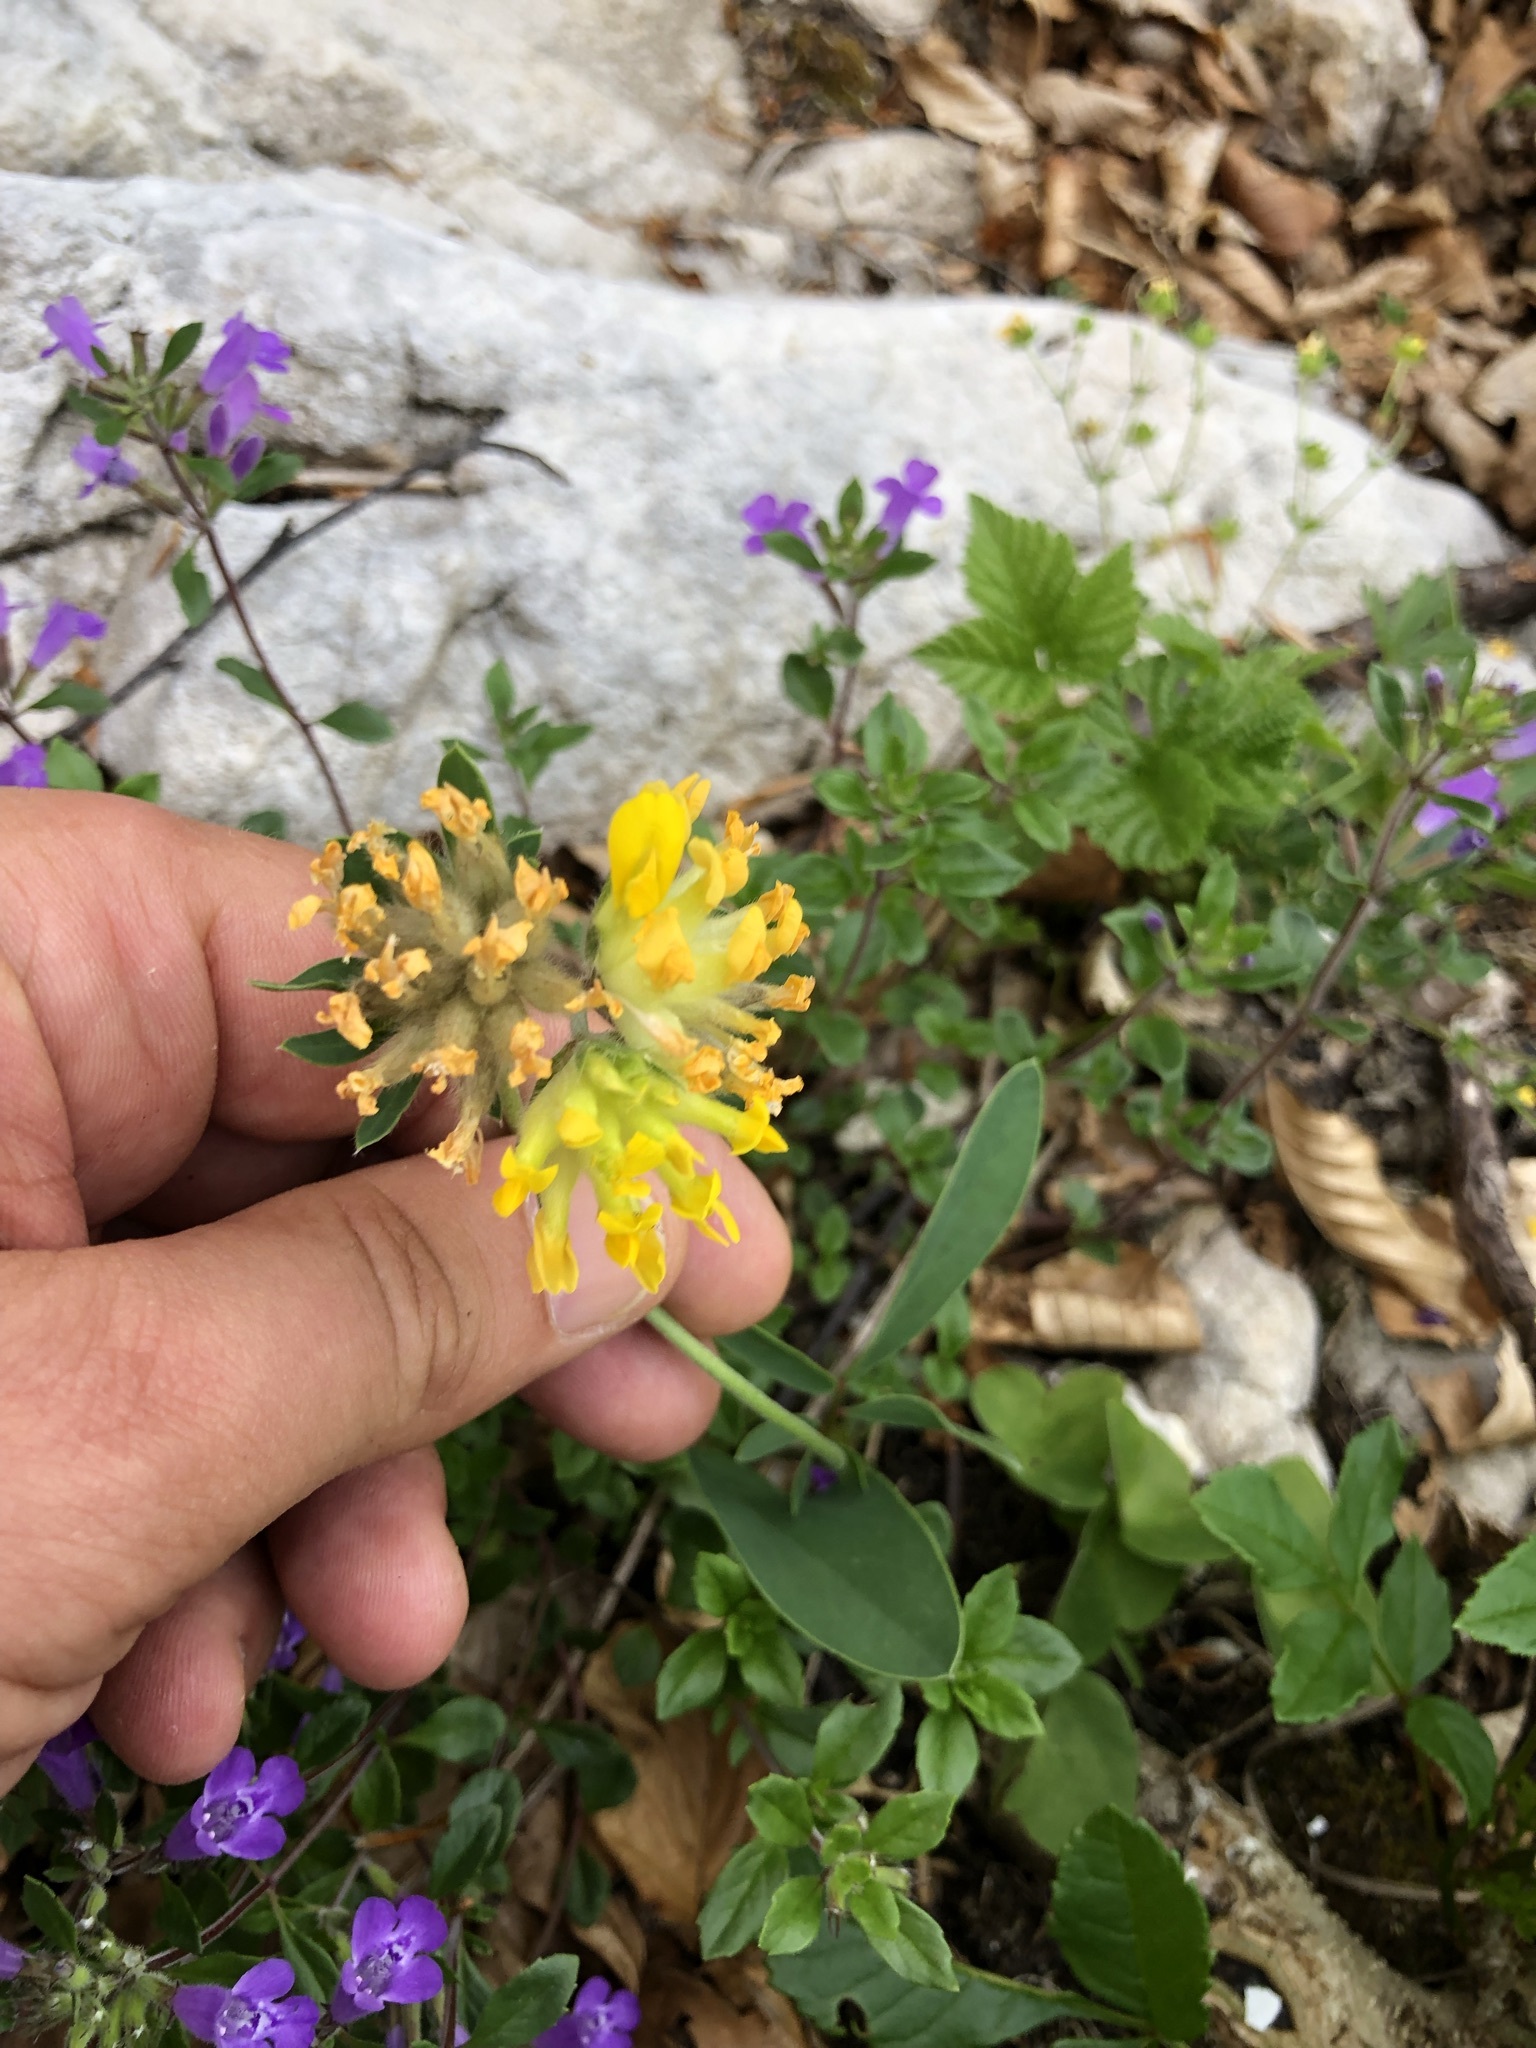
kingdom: Plantae
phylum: Tracheophyta
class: Magnoliopsida
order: Fabales
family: Fabaceae
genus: Anthyllis
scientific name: Anthyllis vulneraria
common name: Kidney vetch
